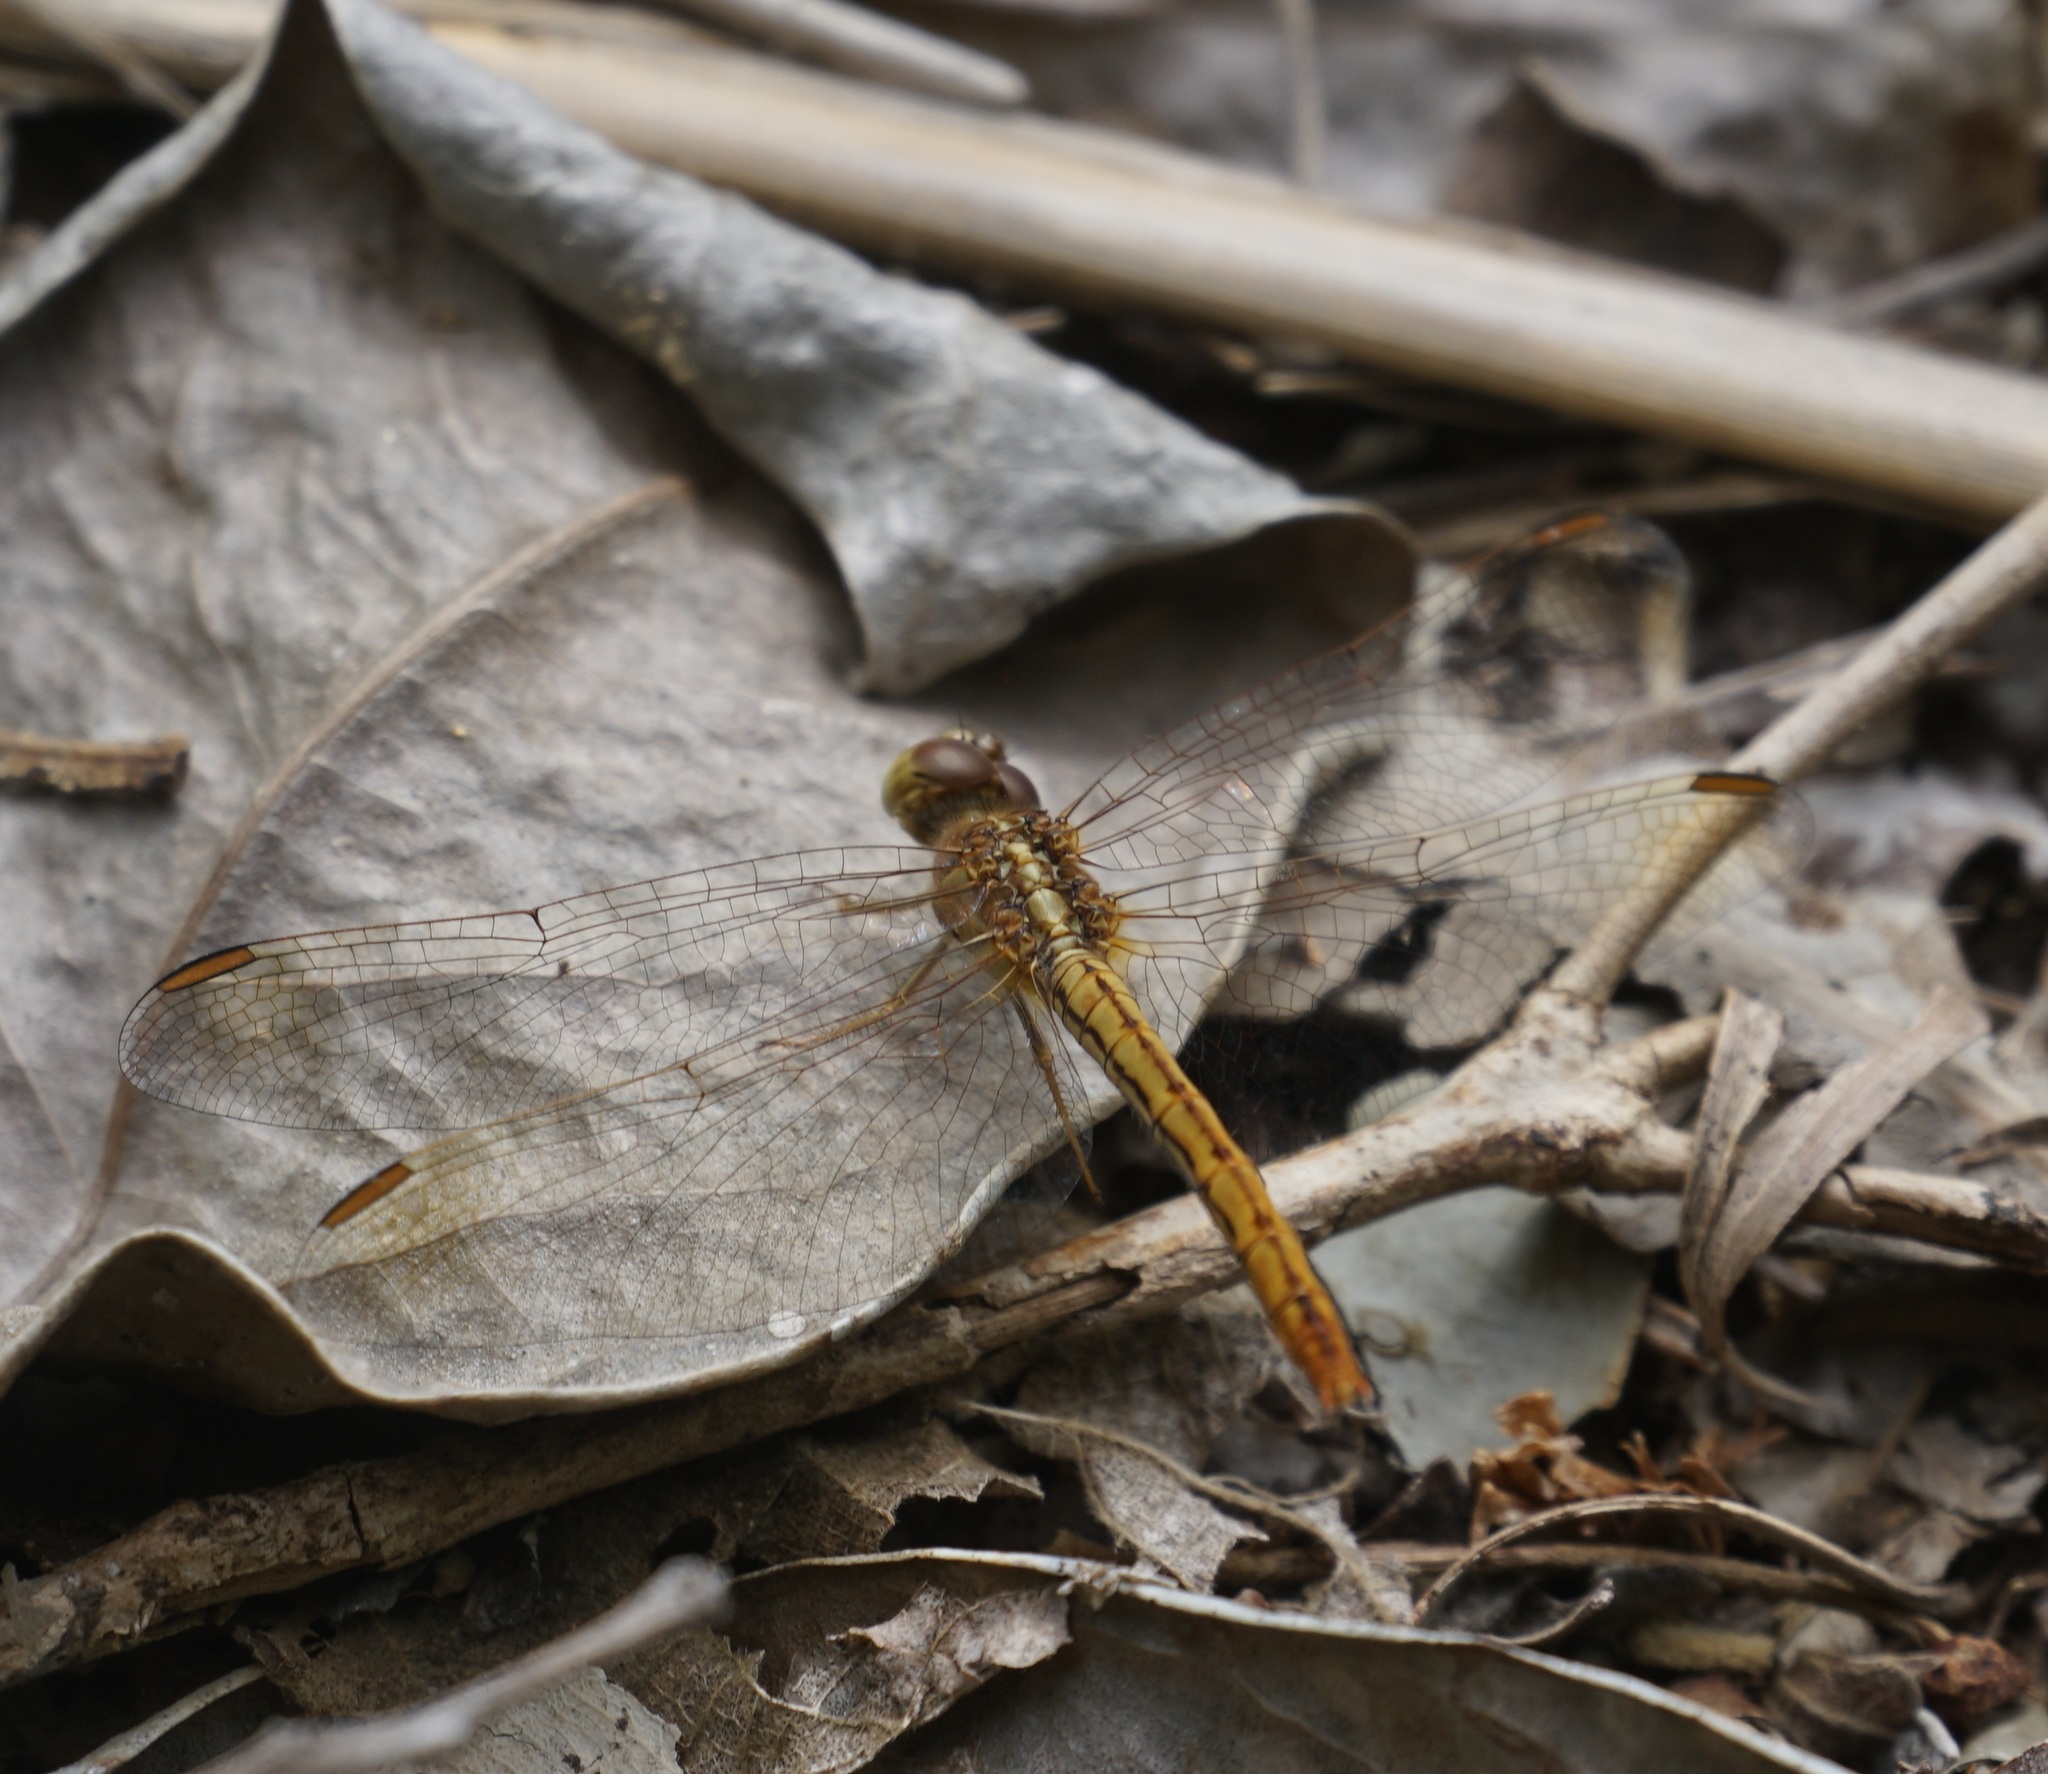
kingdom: Animalia
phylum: Arthropoda
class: Insecta
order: Odonata
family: Libellulidae
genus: Diplacodes
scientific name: Diplacodes haematodes
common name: Scarlet percher
